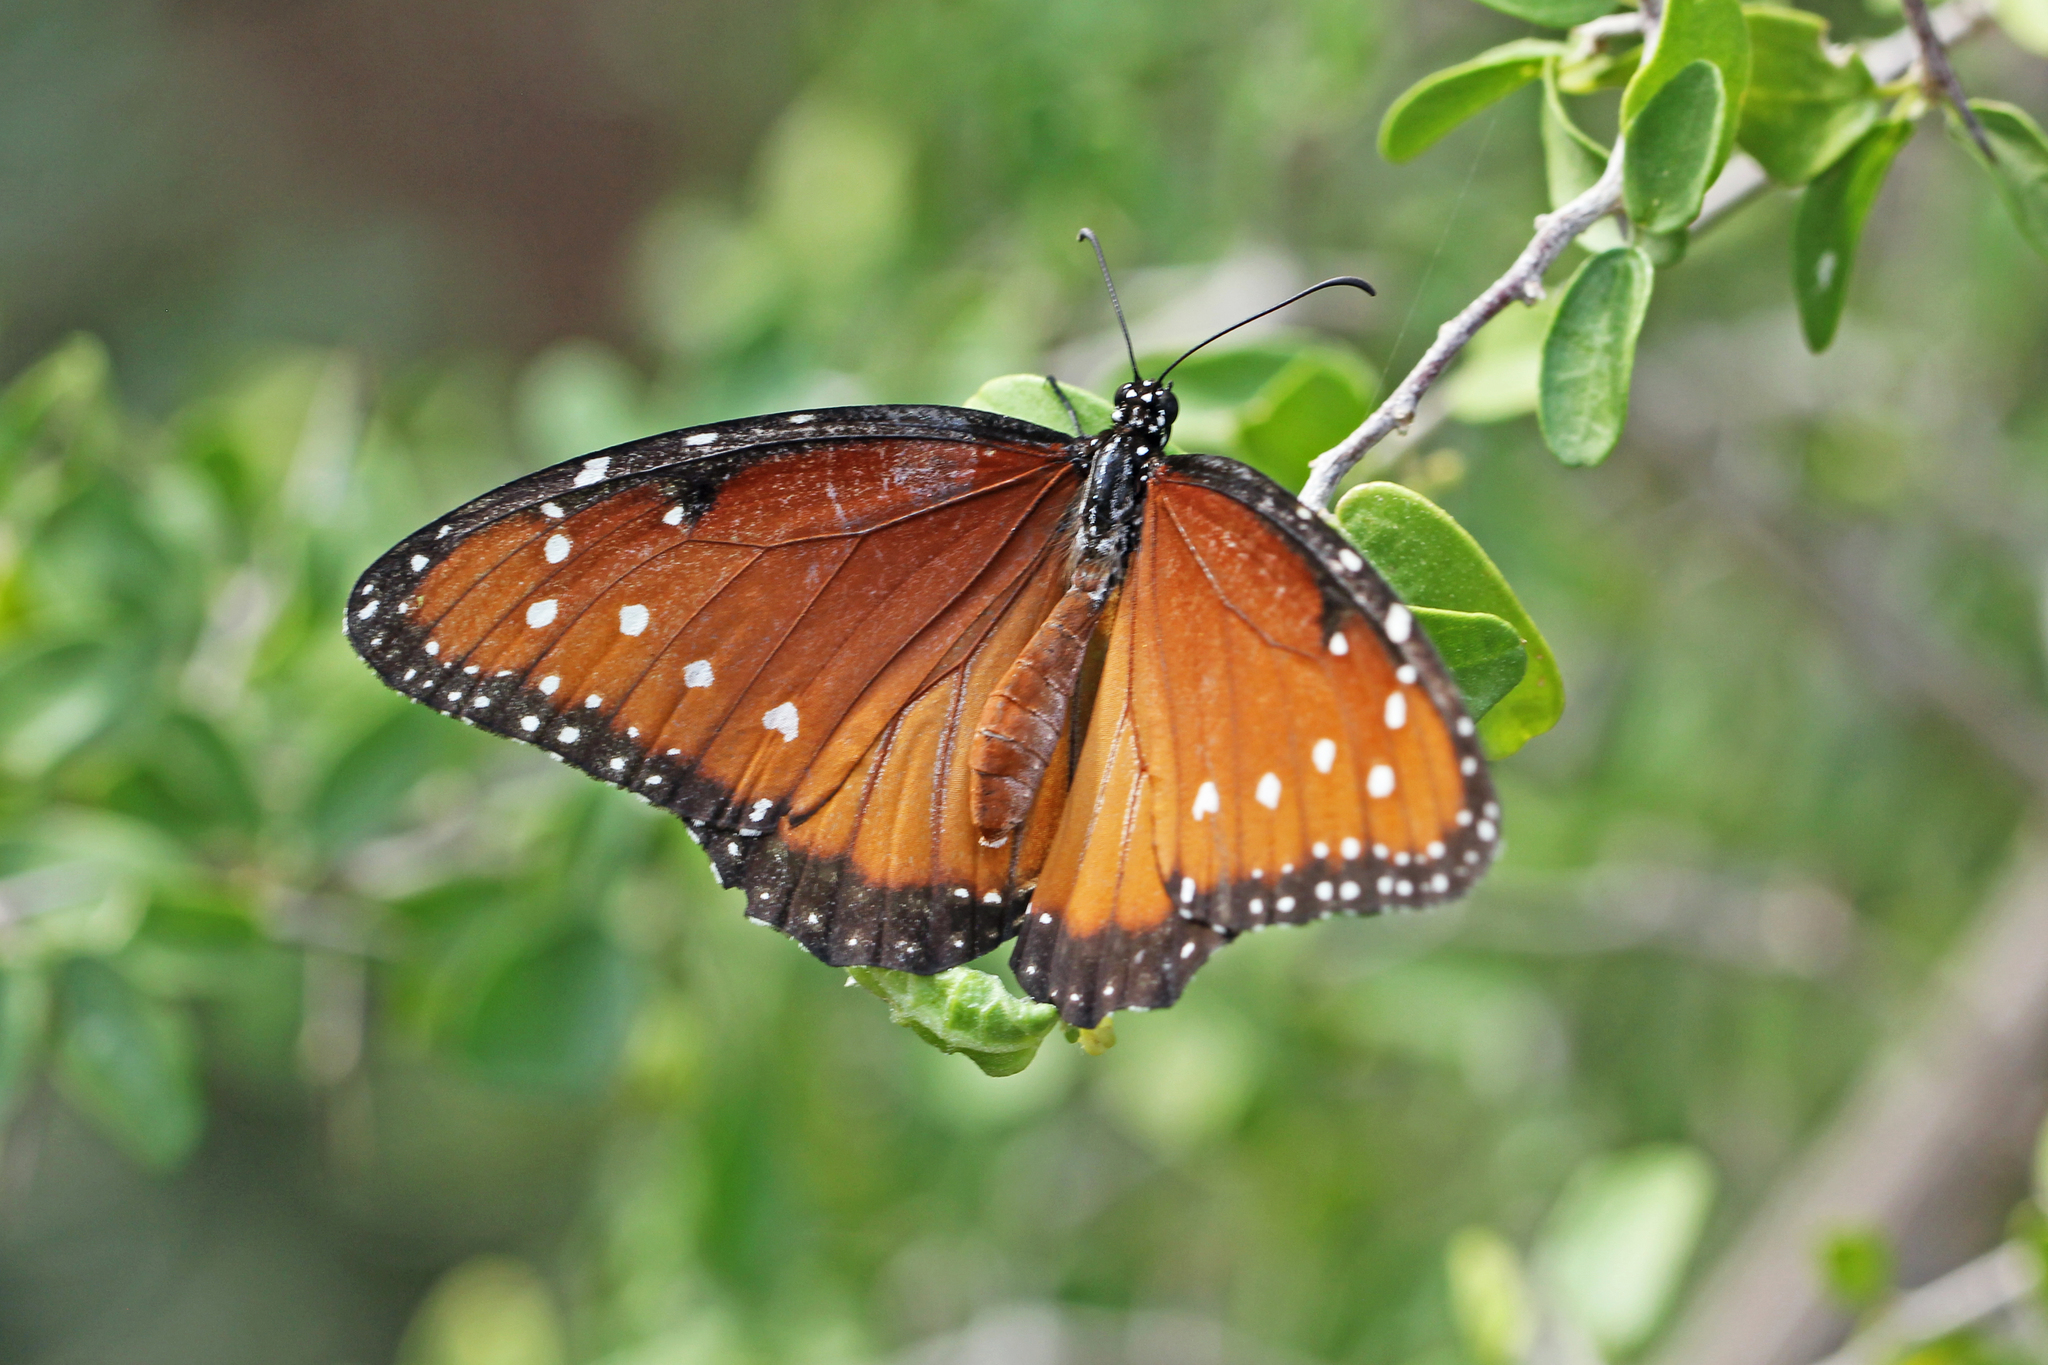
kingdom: Animalia
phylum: Arthropoda
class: Insecta
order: Lepidoptera
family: Nymphalidae
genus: Danaus
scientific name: Danaus gilippus
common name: Queen
